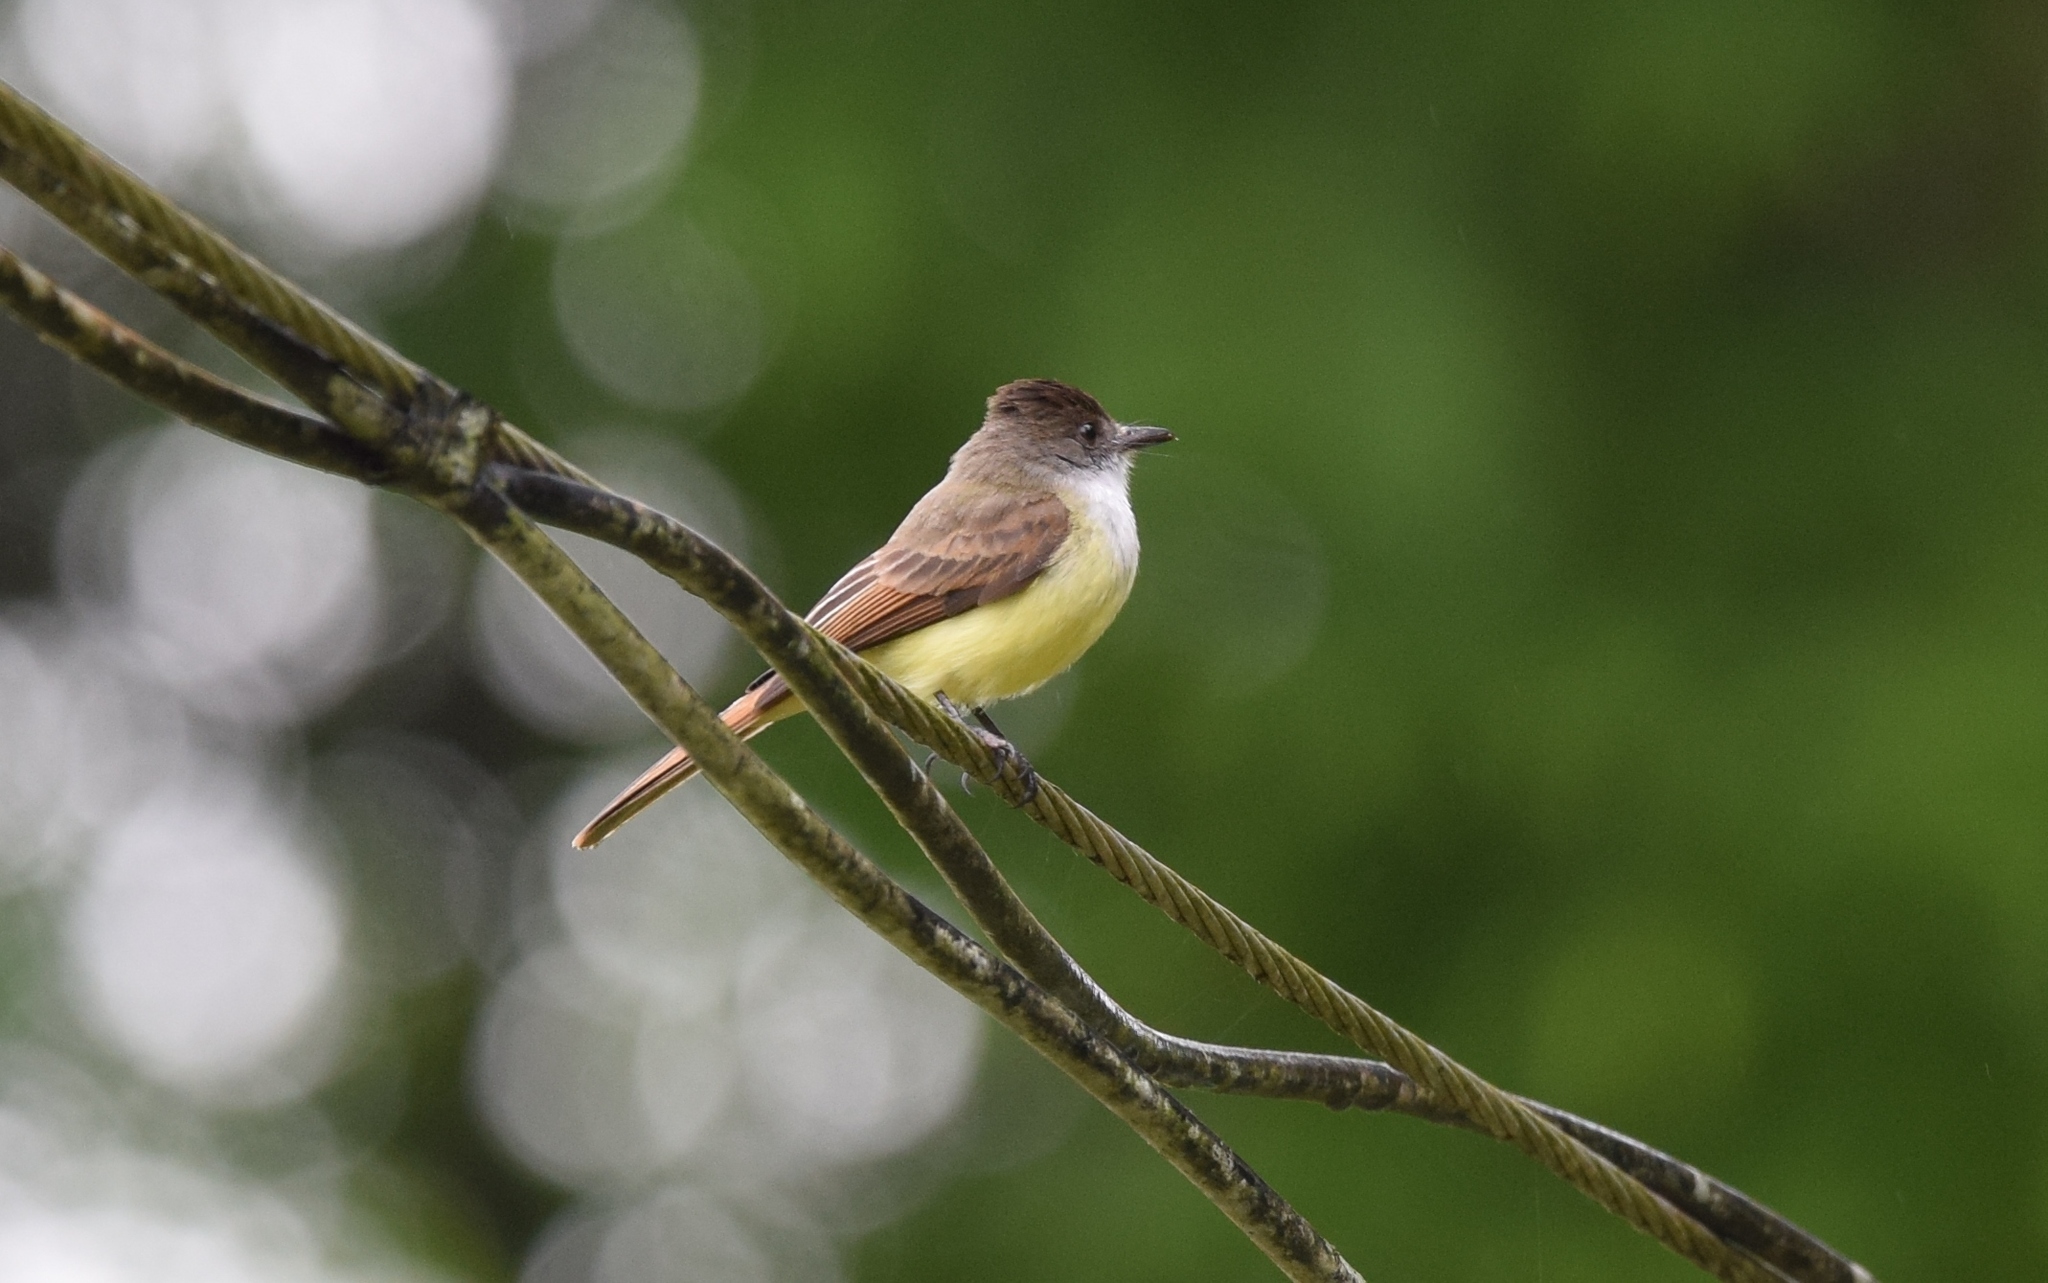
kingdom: Animalia
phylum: Chordata
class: Aves
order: Passeriformes
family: Tyrannidae
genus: Myiarchus
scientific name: Myiarchus tuberculifer
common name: Dusky-capped flycatcher
